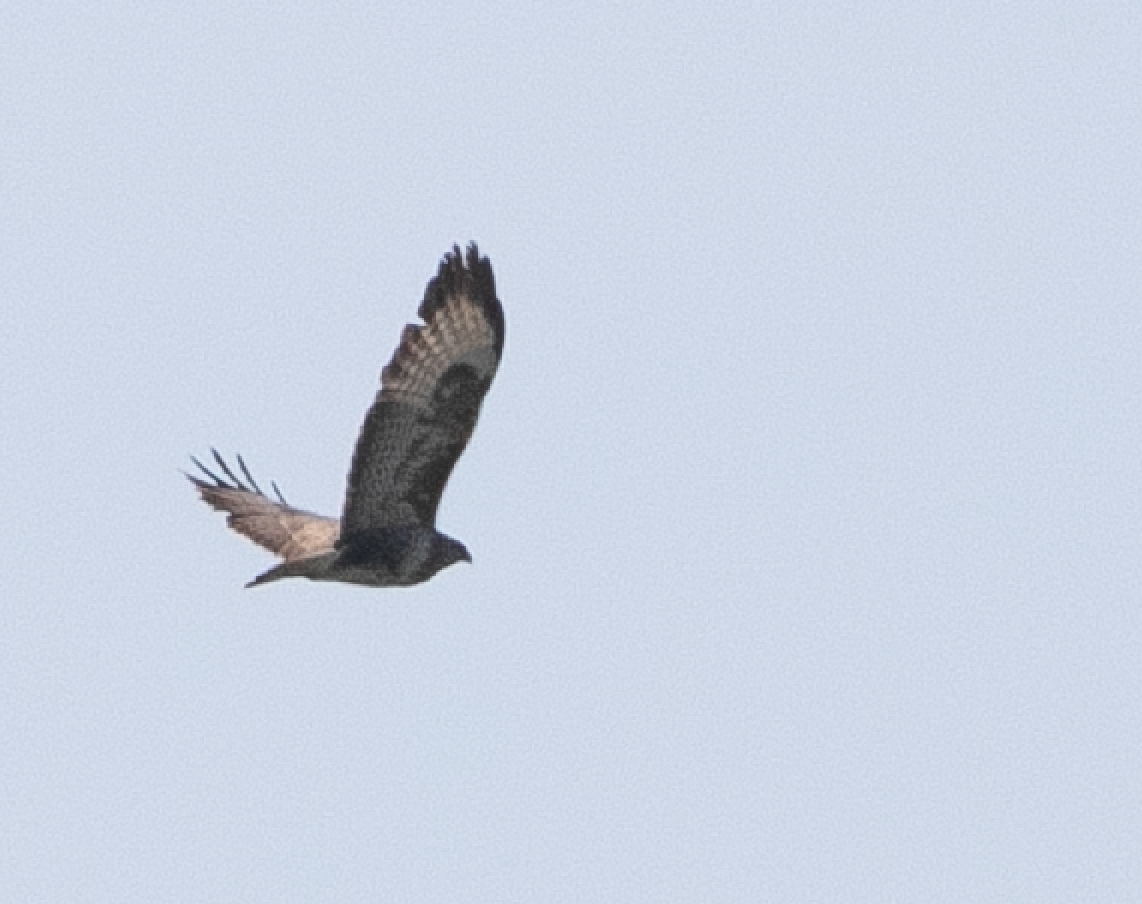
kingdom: Animalia
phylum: Chordata
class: Aves
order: Accipitriformes
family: Accipitridae
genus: Buteo
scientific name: Buteo buteo
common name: Common buzzard
